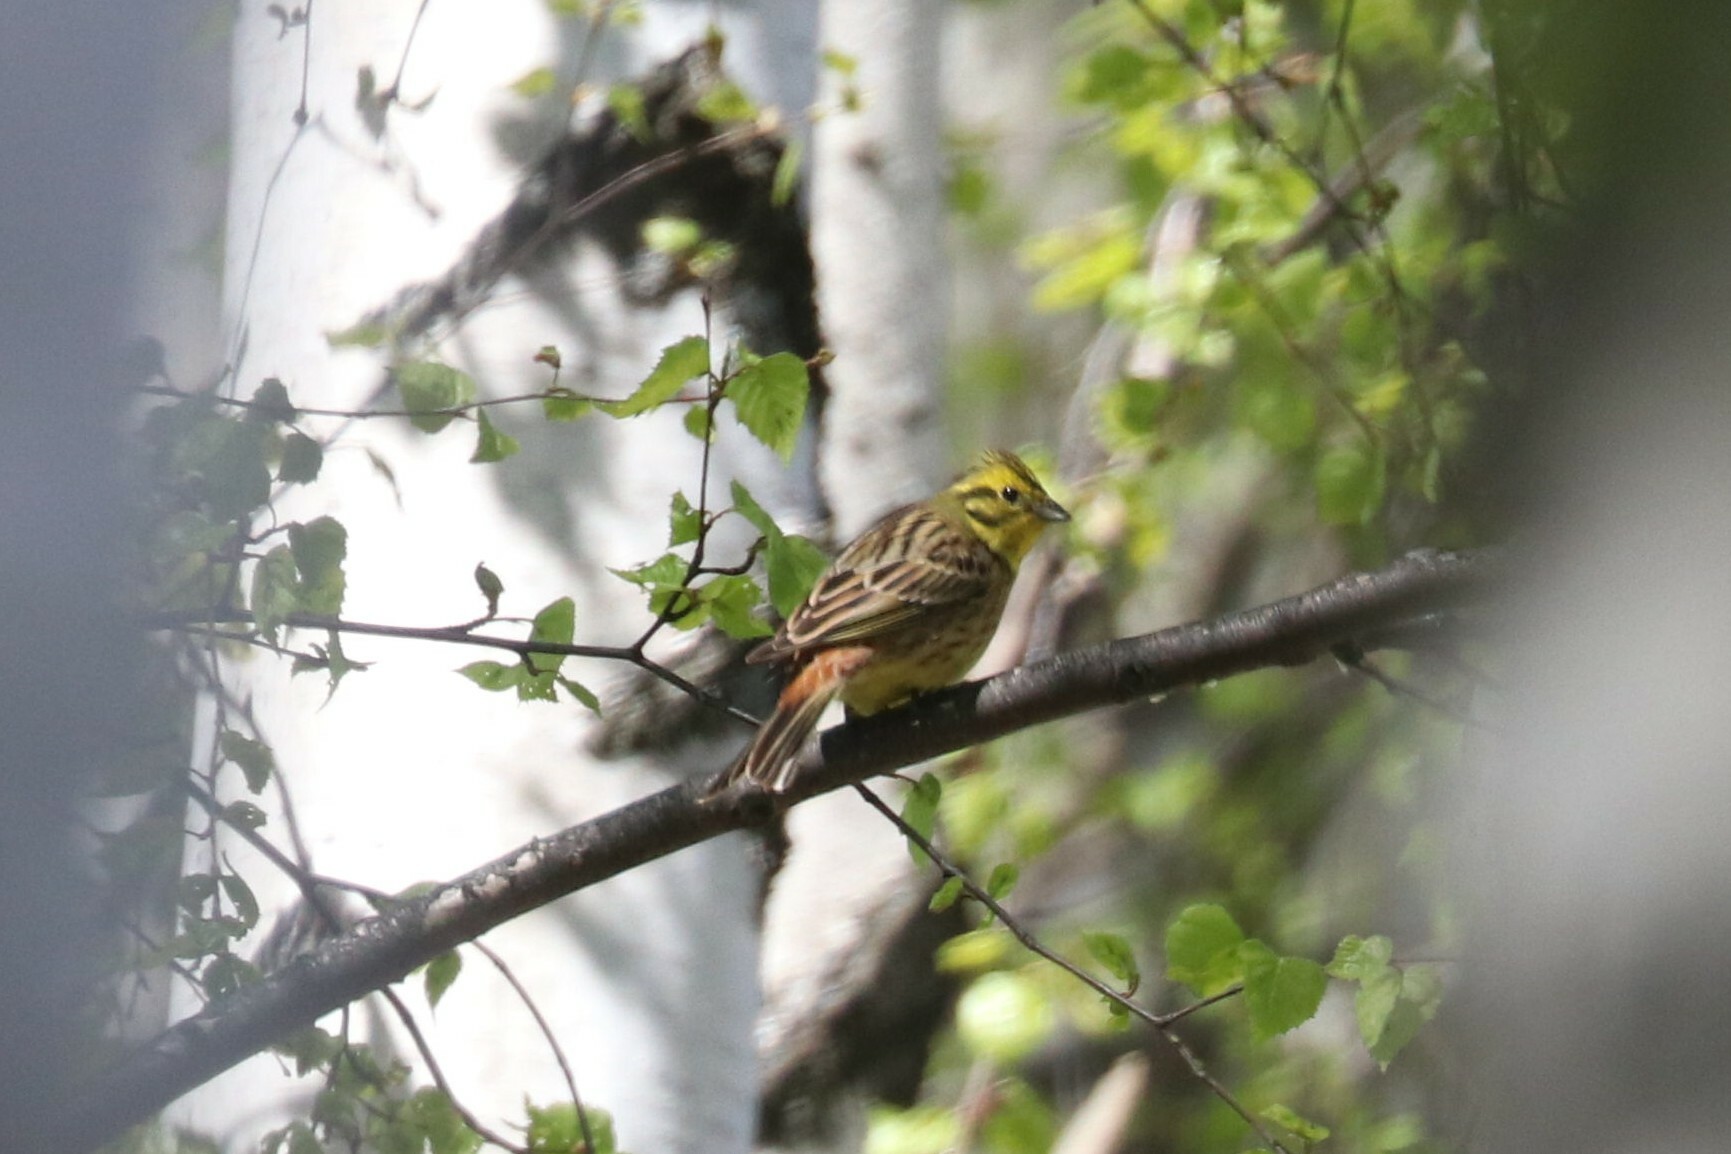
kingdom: Animalia
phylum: Chordata
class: Aves
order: Passeriformes
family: Emberizidae
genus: Emberiza
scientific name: Emberiza citrinella
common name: Yellowhammer
